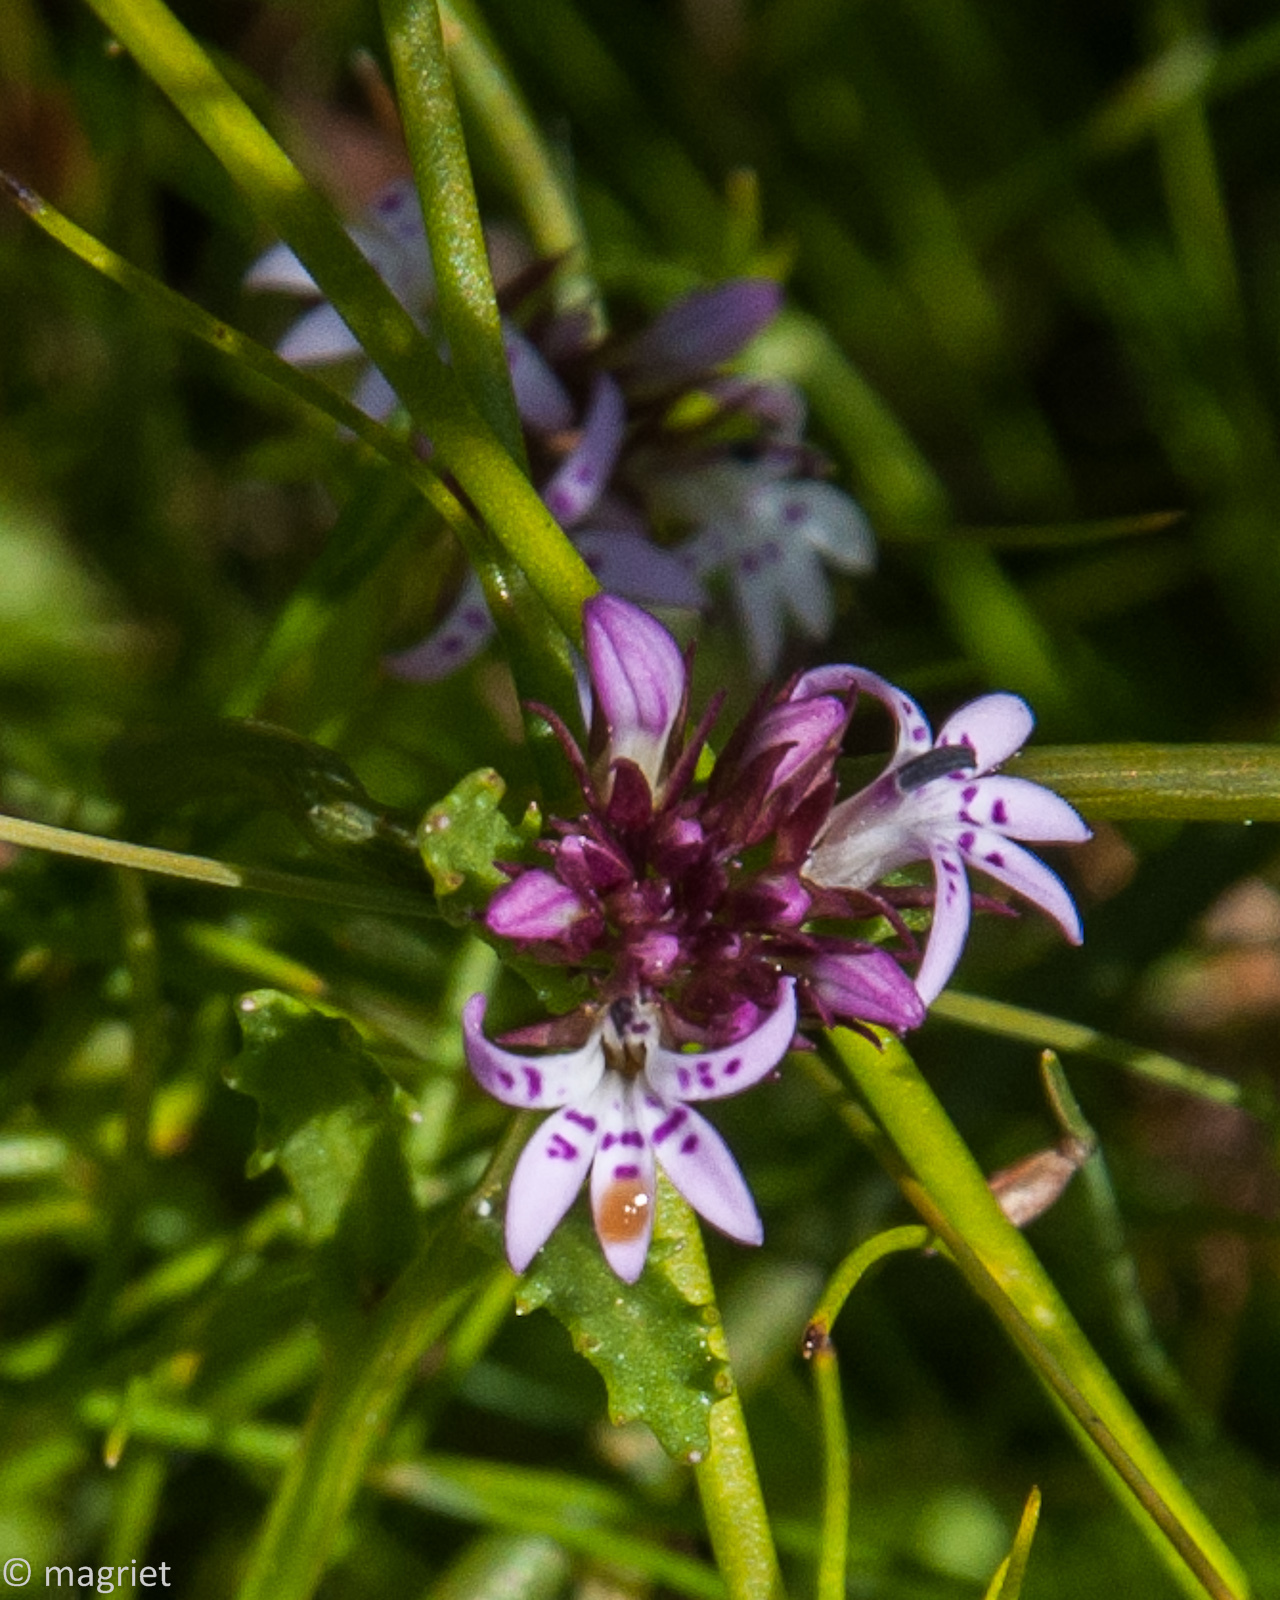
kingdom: Plantae
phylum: Tracheophyta
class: Magnoliopsida
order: Asterales
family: Campanulaceae
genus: Lobelia
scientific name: Lobelia jasionoides
